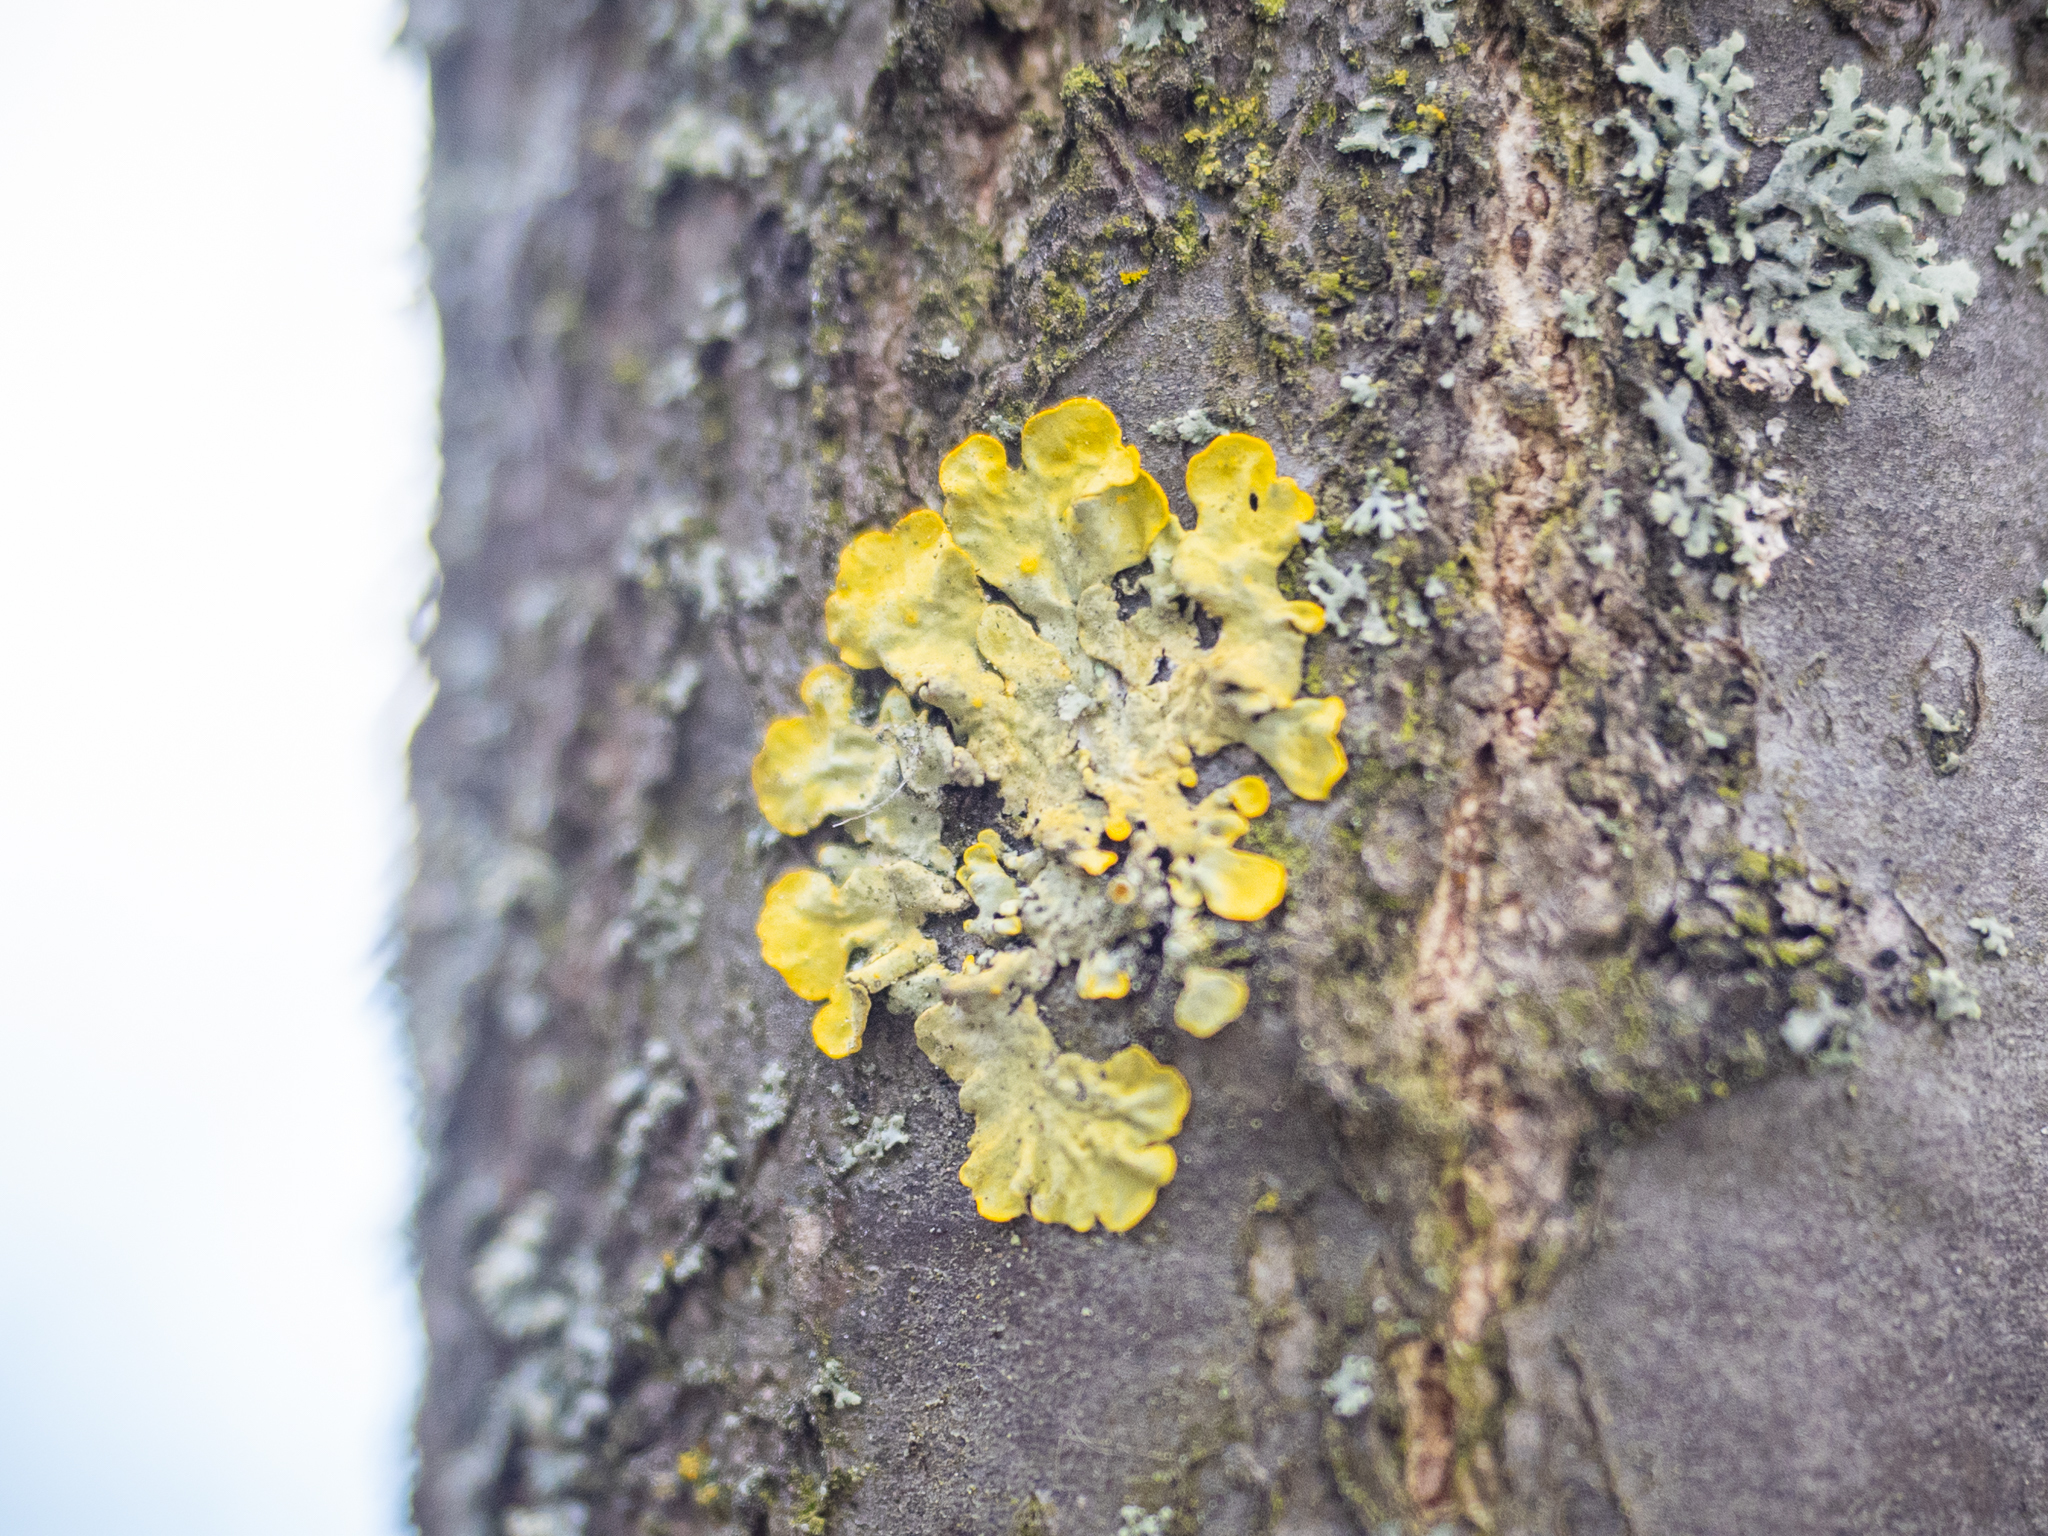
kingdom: Fungi
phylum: Ascomycota
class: Lecanoromycetes
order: Teloschistales
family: Teloschistaceae
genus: Xanthoria
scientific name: Xanthoria parietina
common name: Common orange lichen
